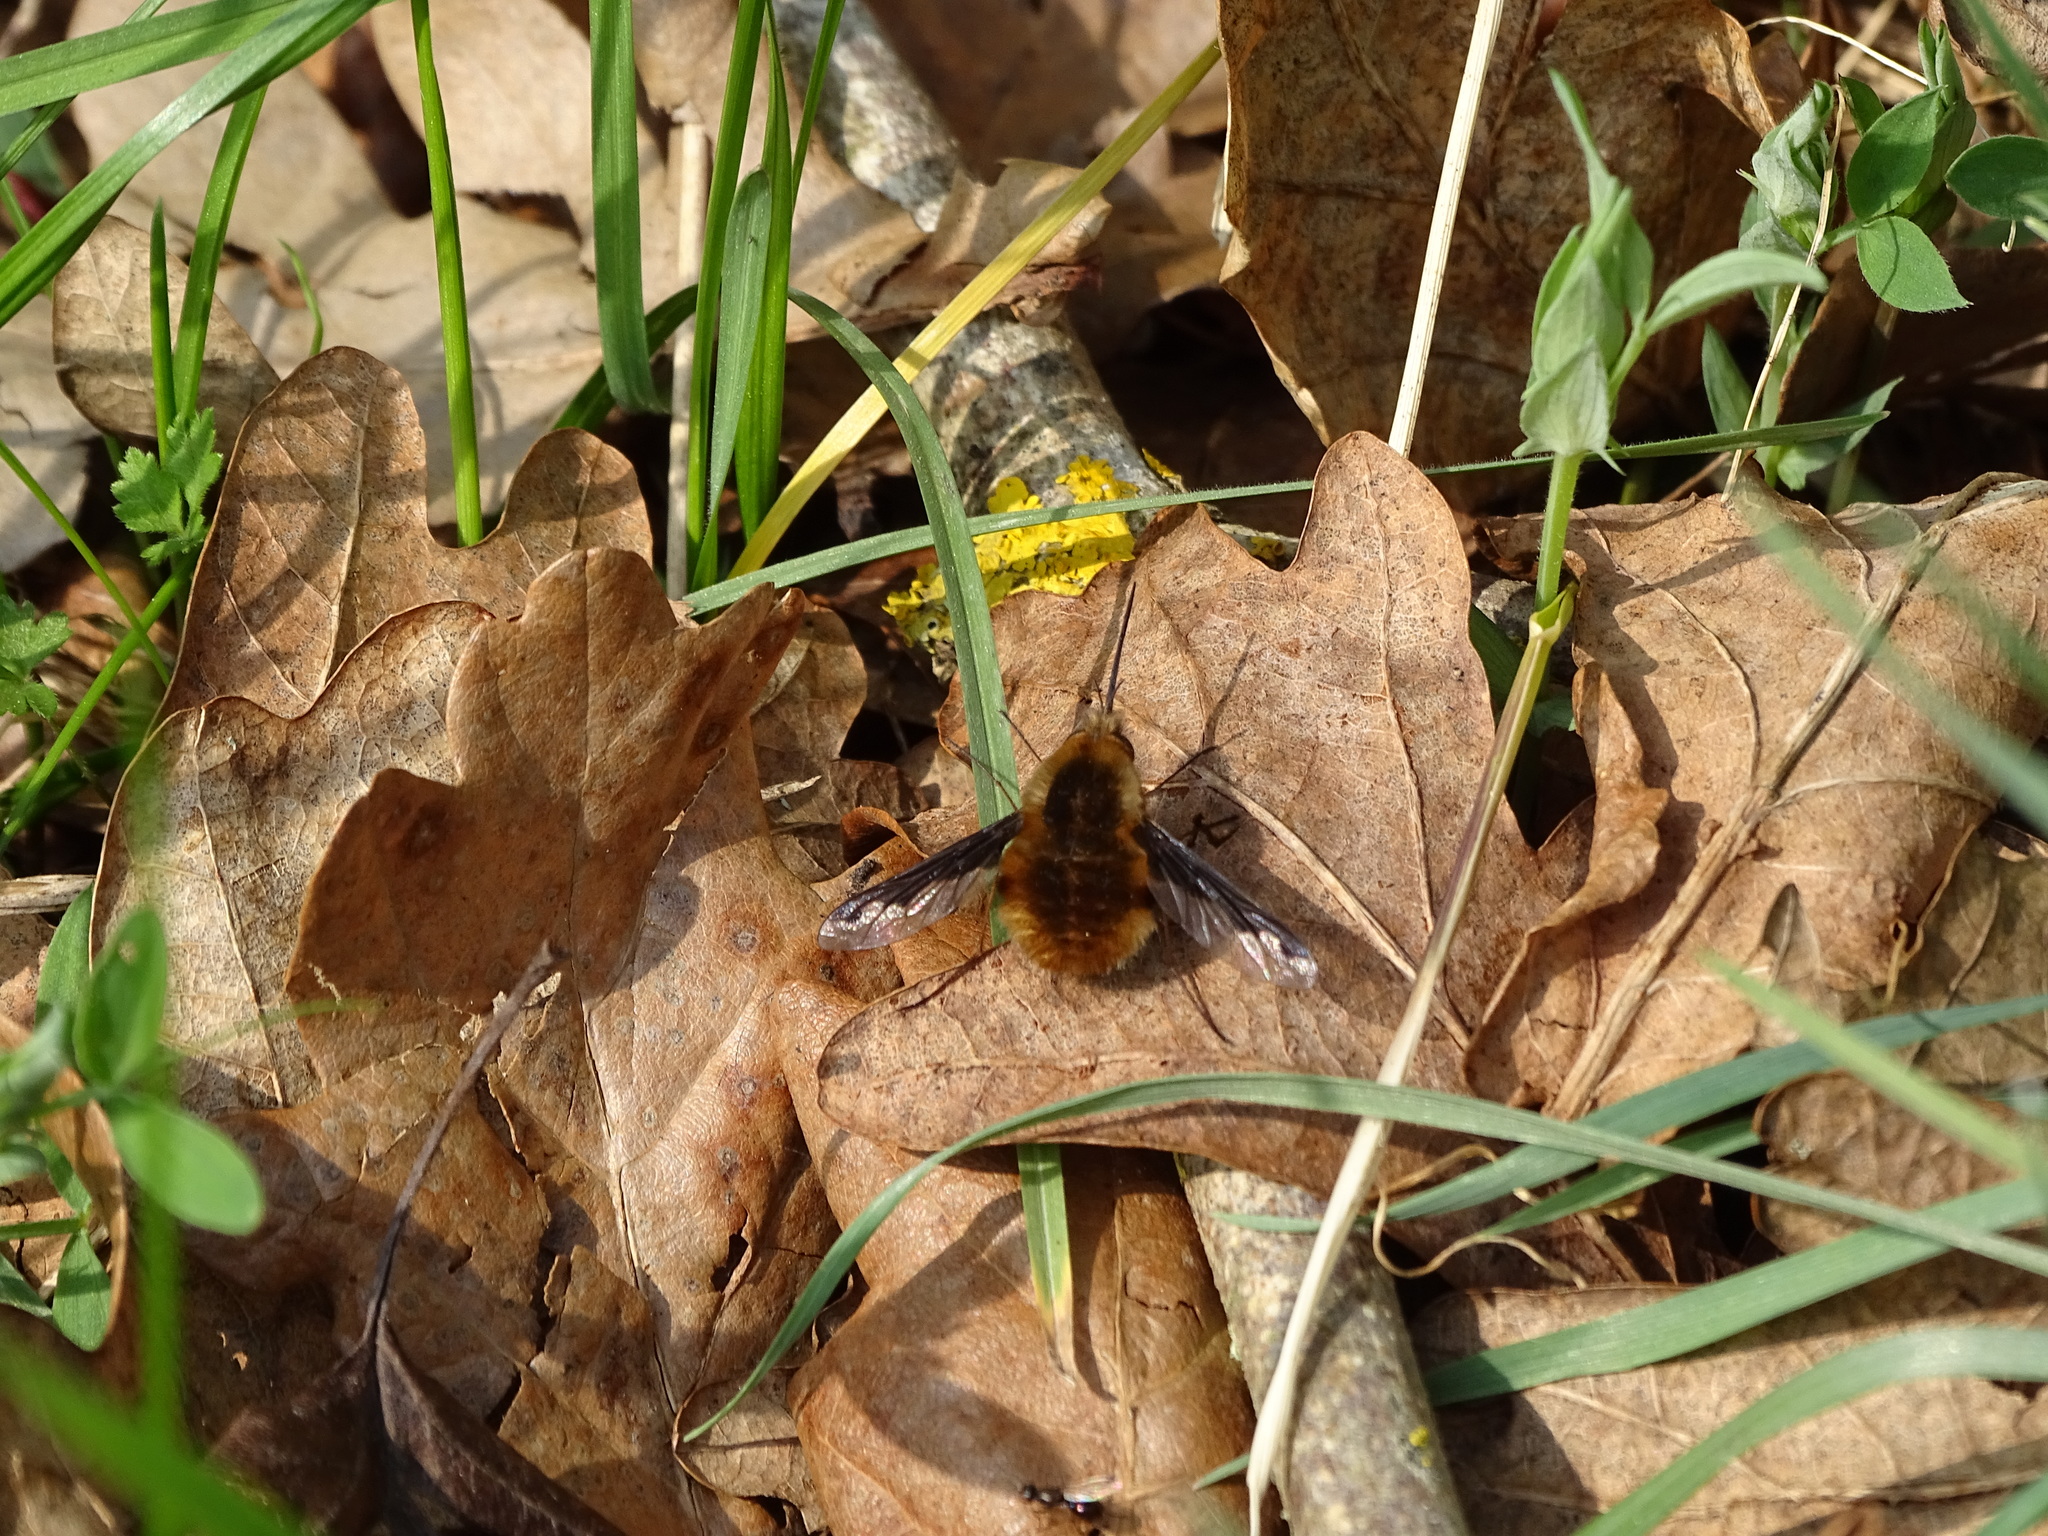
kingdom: Animalia
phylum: Arthropoda
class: Insecta
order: Diptera
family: Bombyliidae
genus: Bombylius
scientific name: Bombylius major
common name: Bee fly
